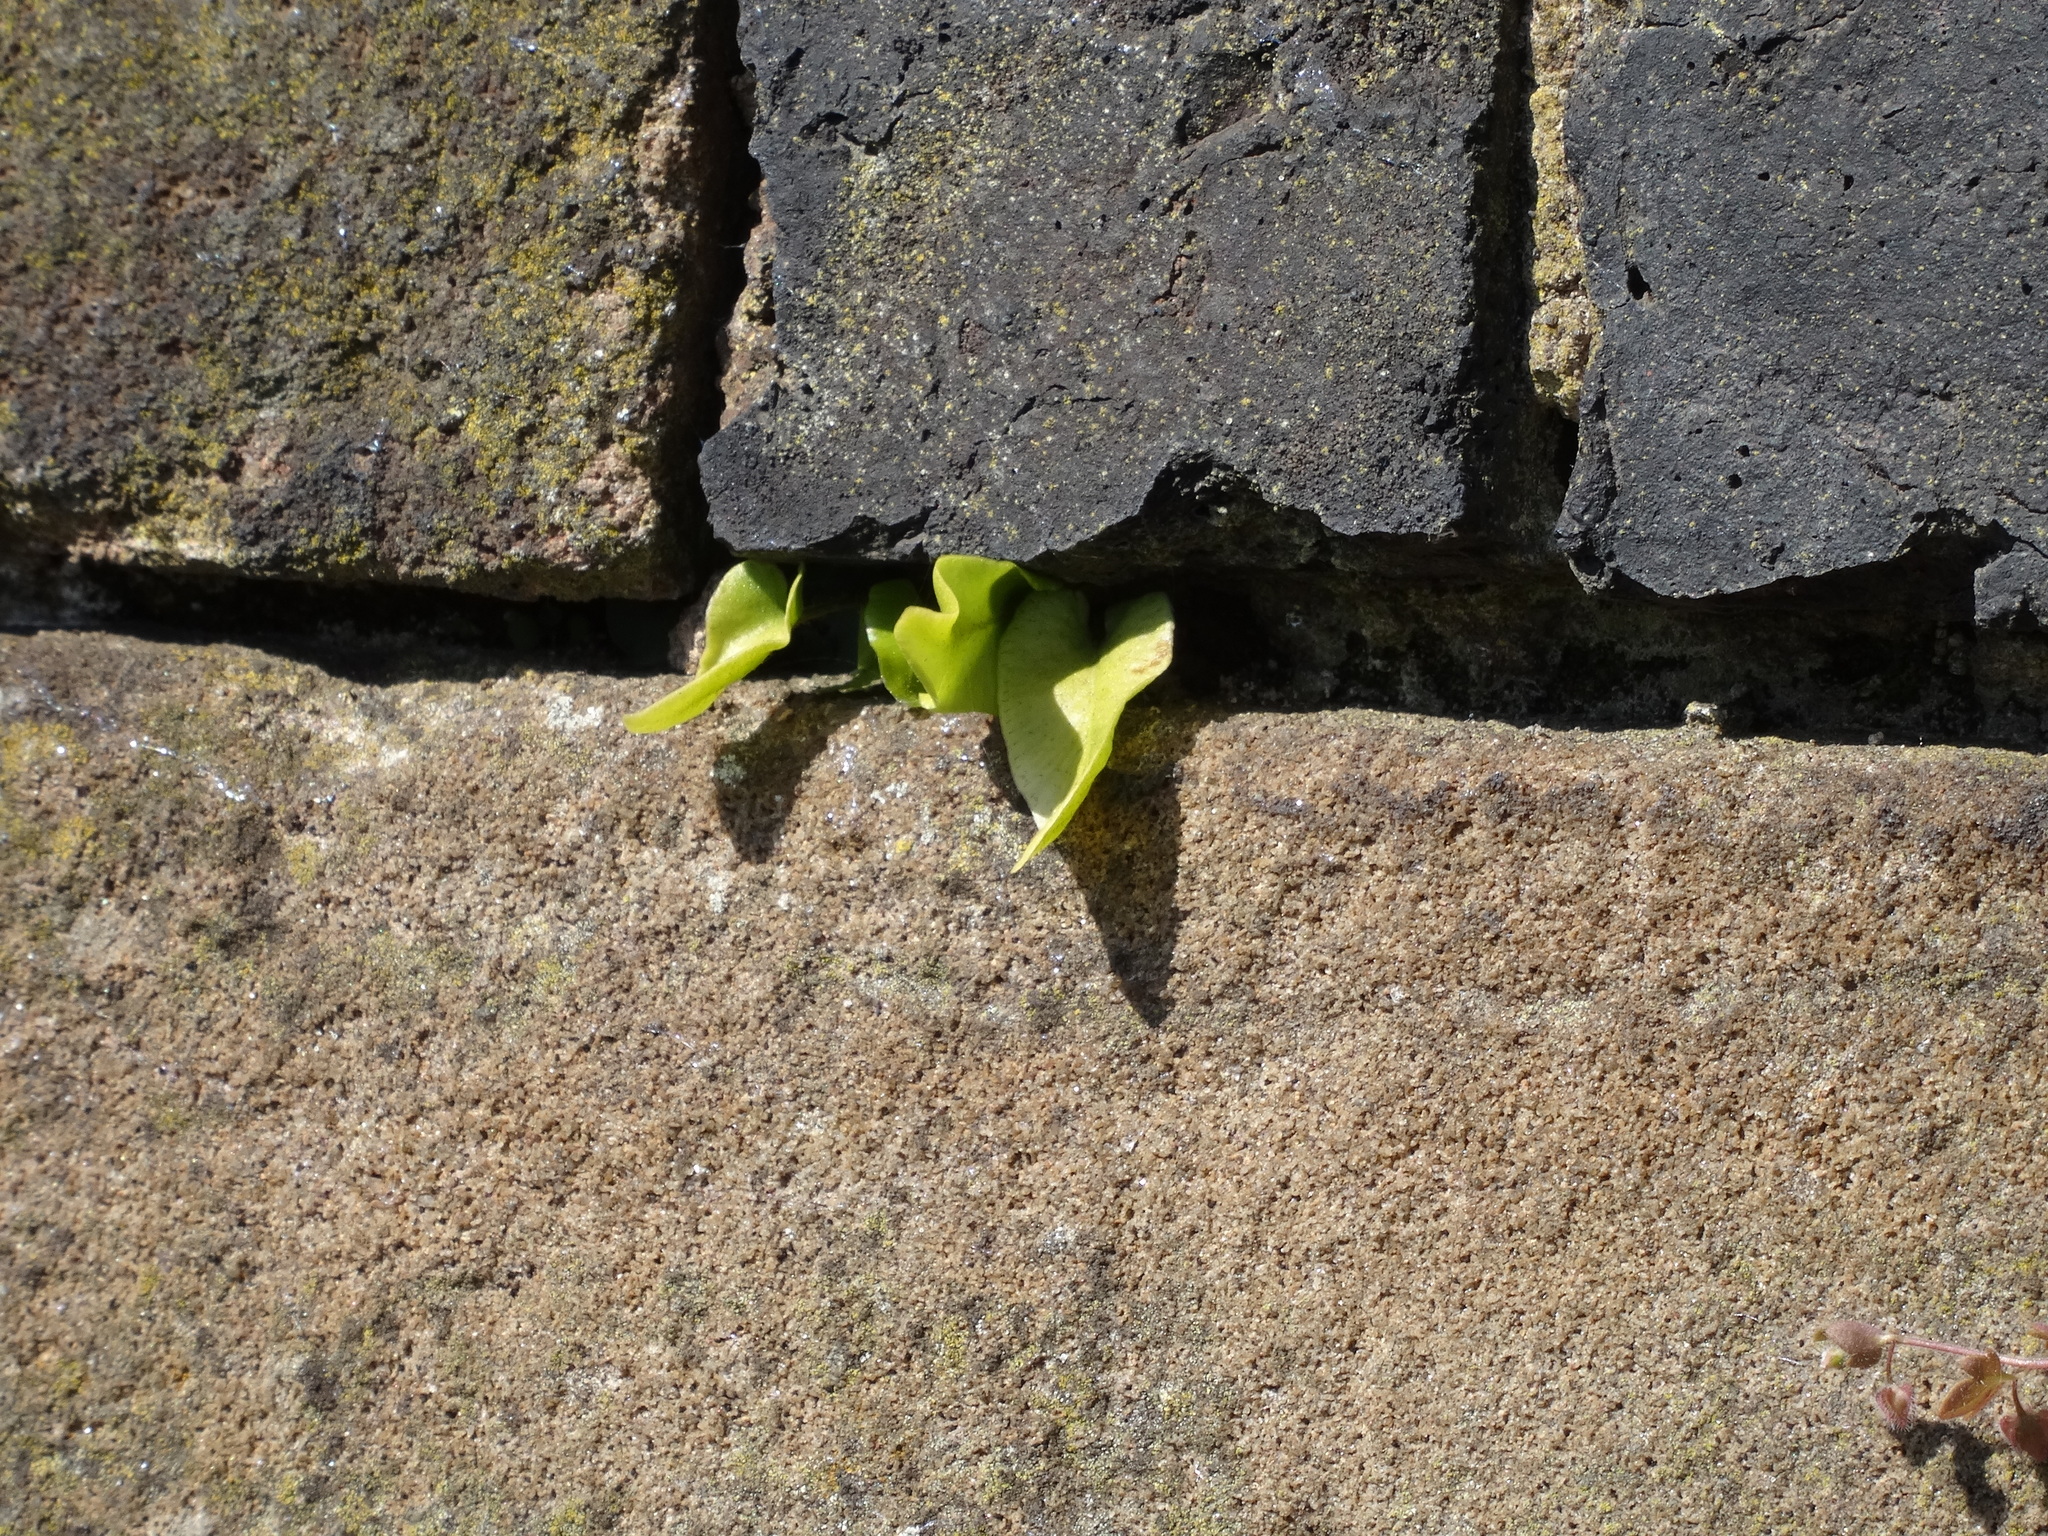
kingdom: Plantae
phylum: Tracheophyta
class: Polypodiopsida
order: Polypodiales
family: Aspleniaceae
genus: Asplenium
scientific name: Asplenium scolopendrium
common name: Hart's-tongue fern
